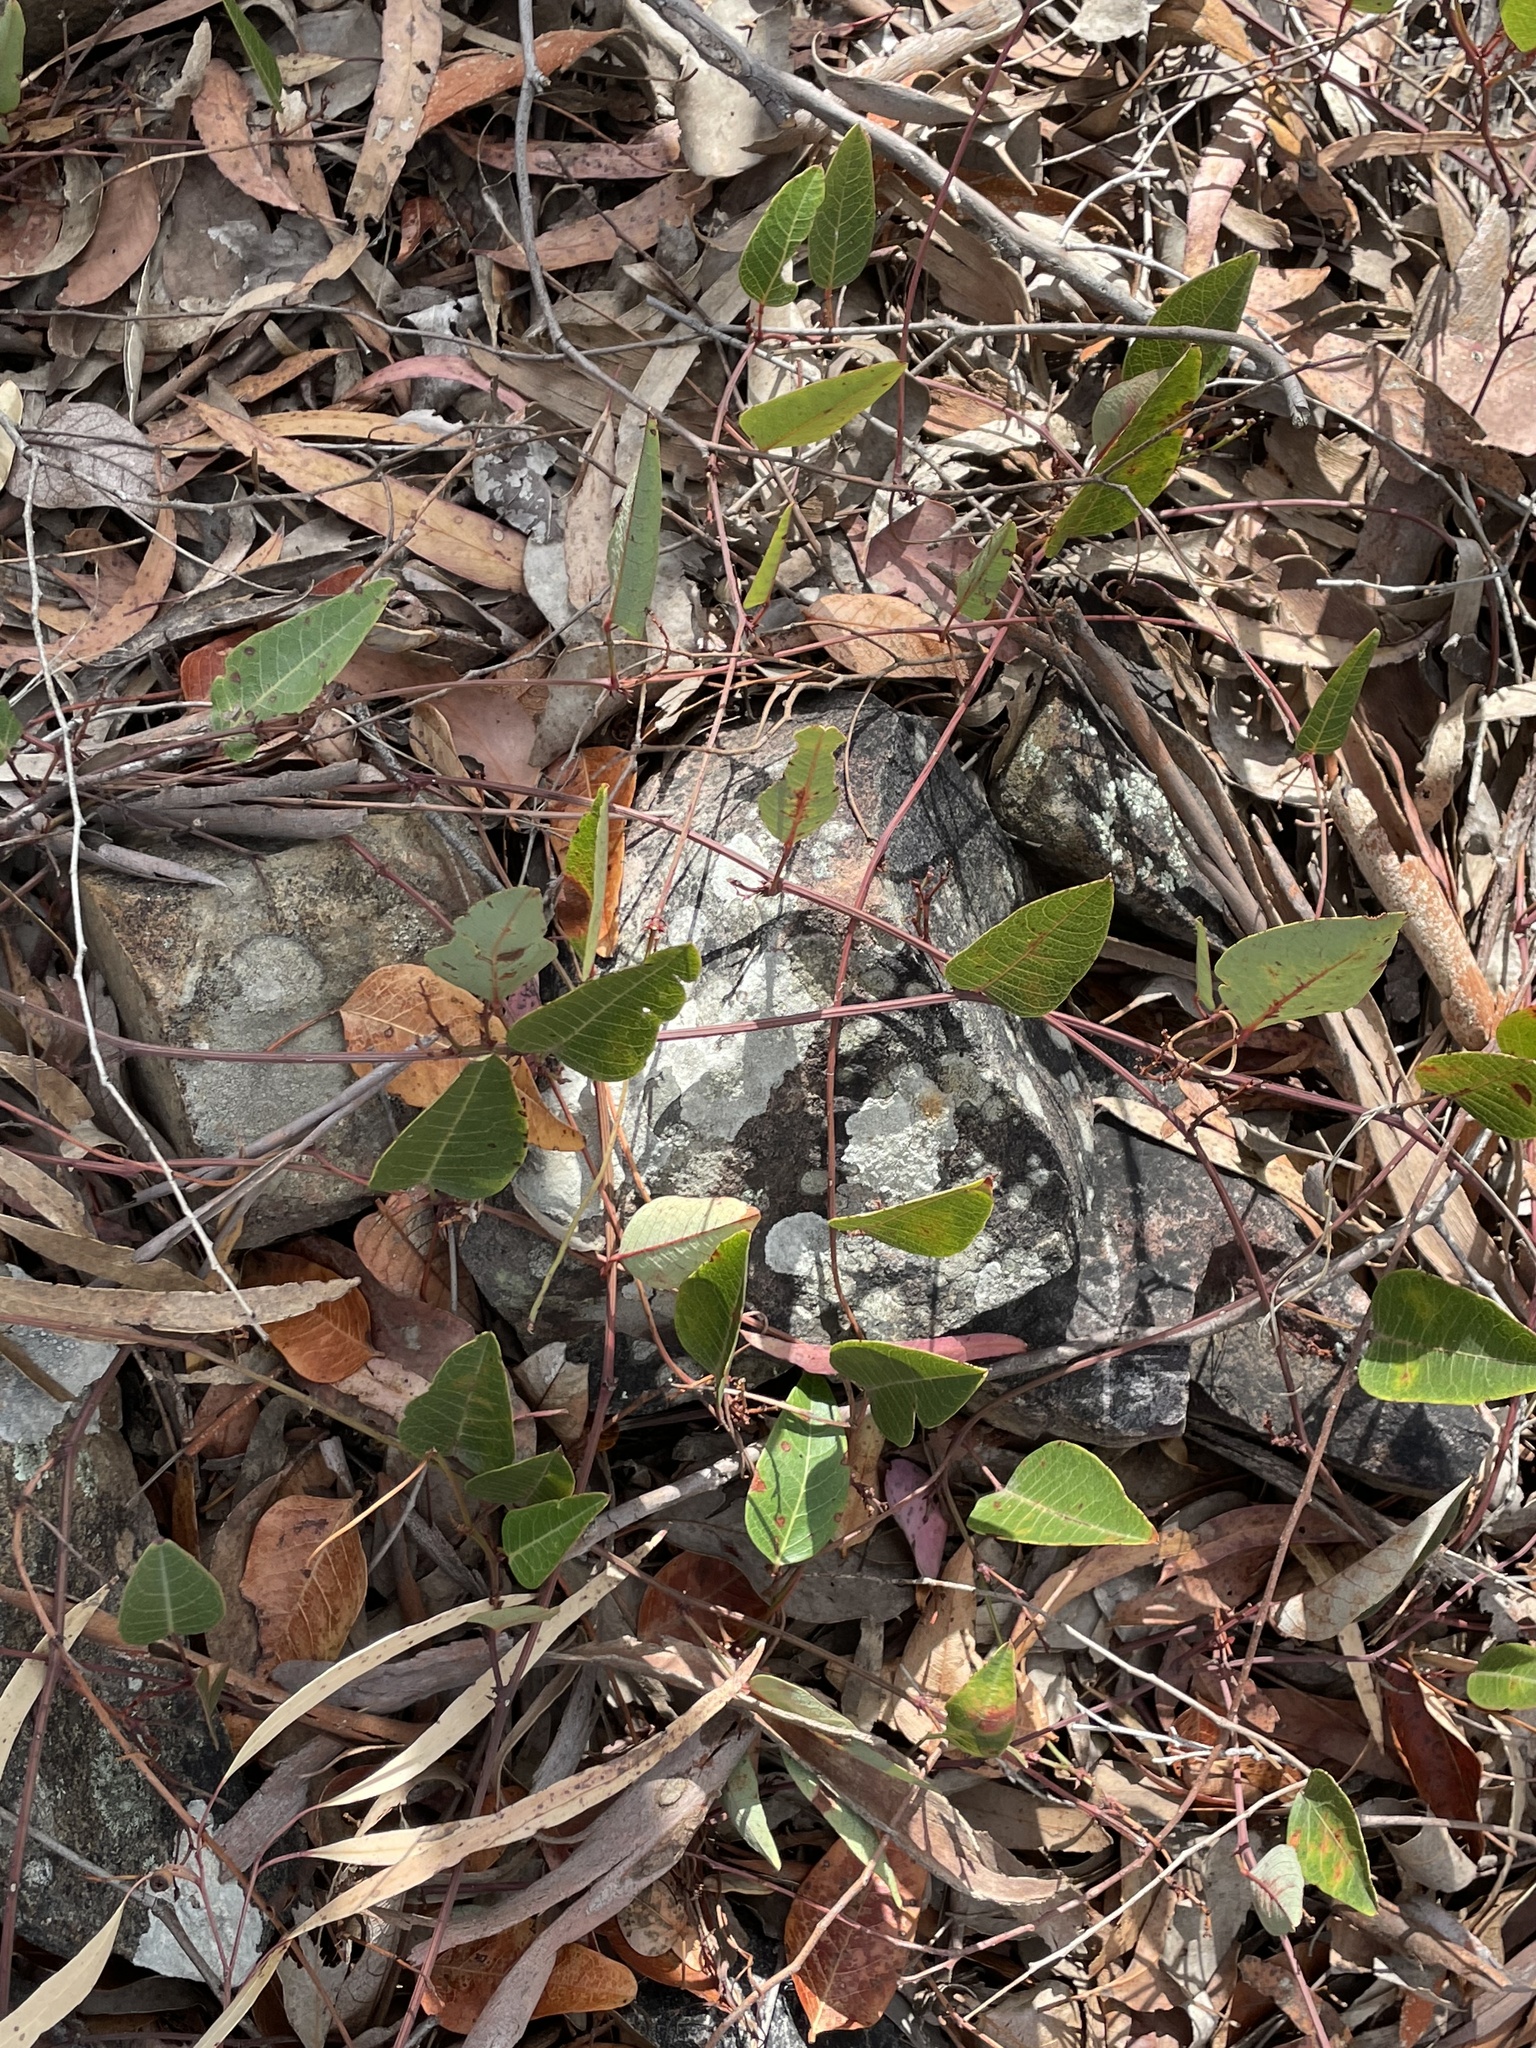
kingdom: Plantae
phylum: Tracheophyta
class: Magnoliopsida
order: Fabales
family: Fabaceae
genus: Hardenbergia
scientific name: Hardenbergia violacea
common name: Coral-pea
